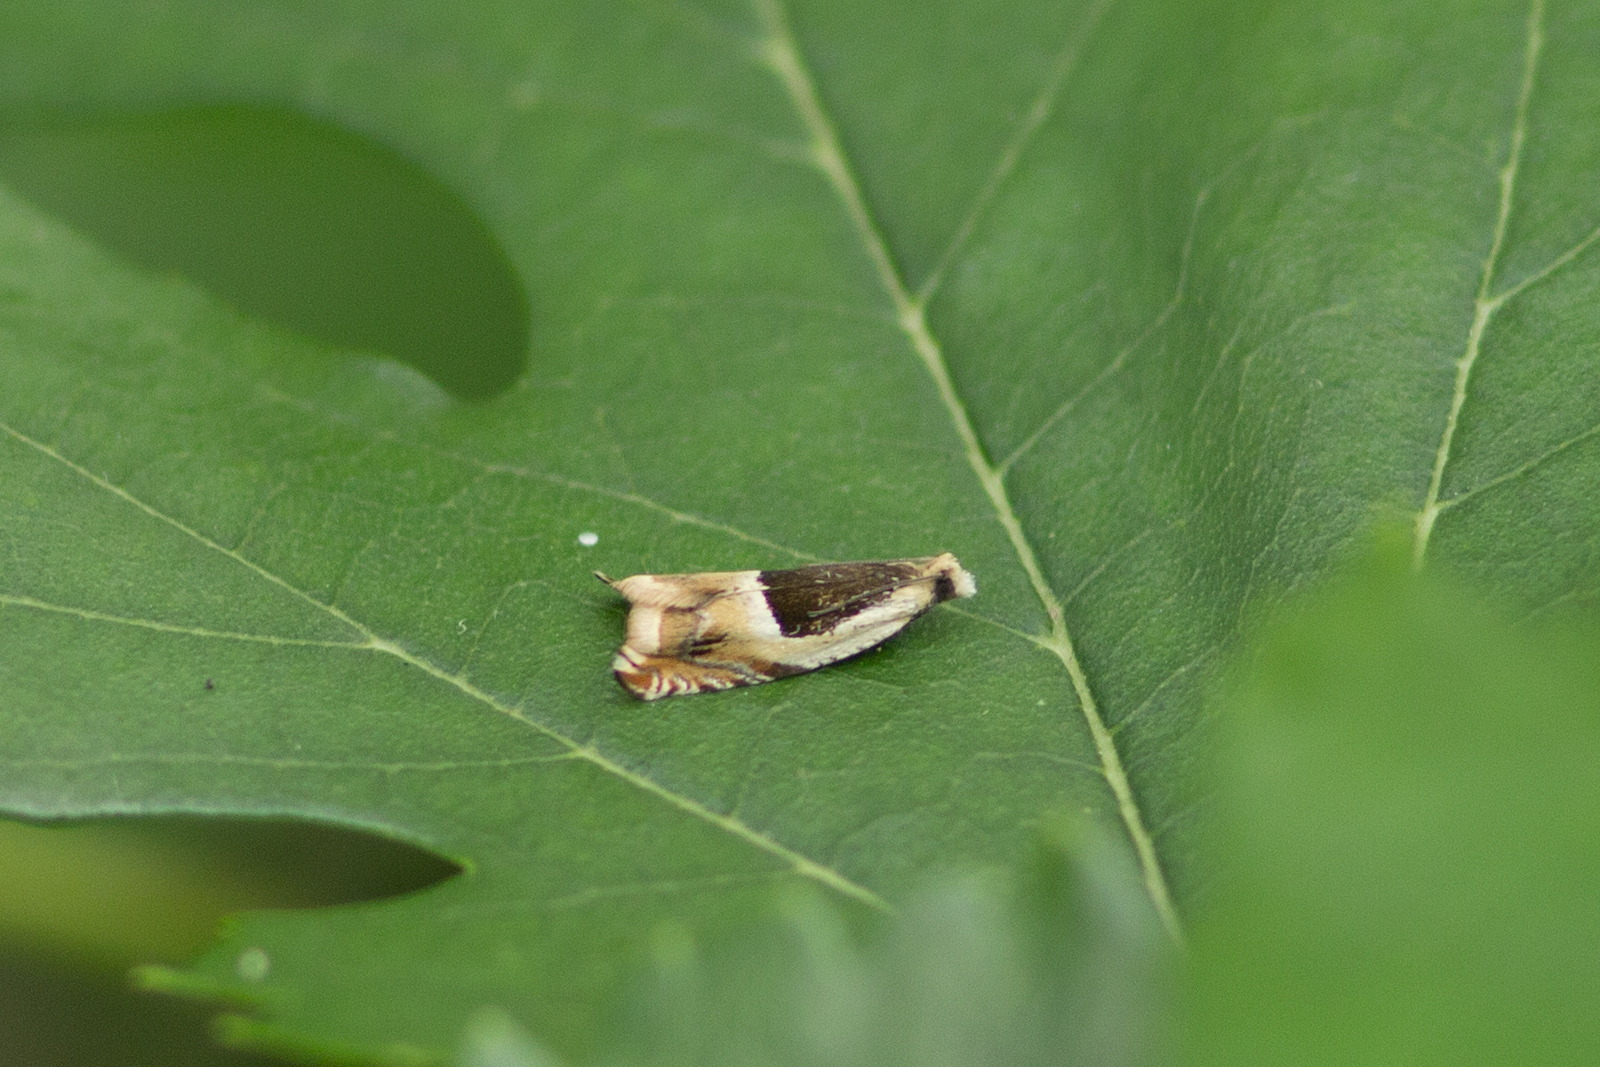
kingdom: Animalia
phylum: Arthropoda
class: Insecta
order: Lepidoptera
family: Tortricidae
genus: Ancylis
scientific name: Ancylis badiana
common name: Common roller
